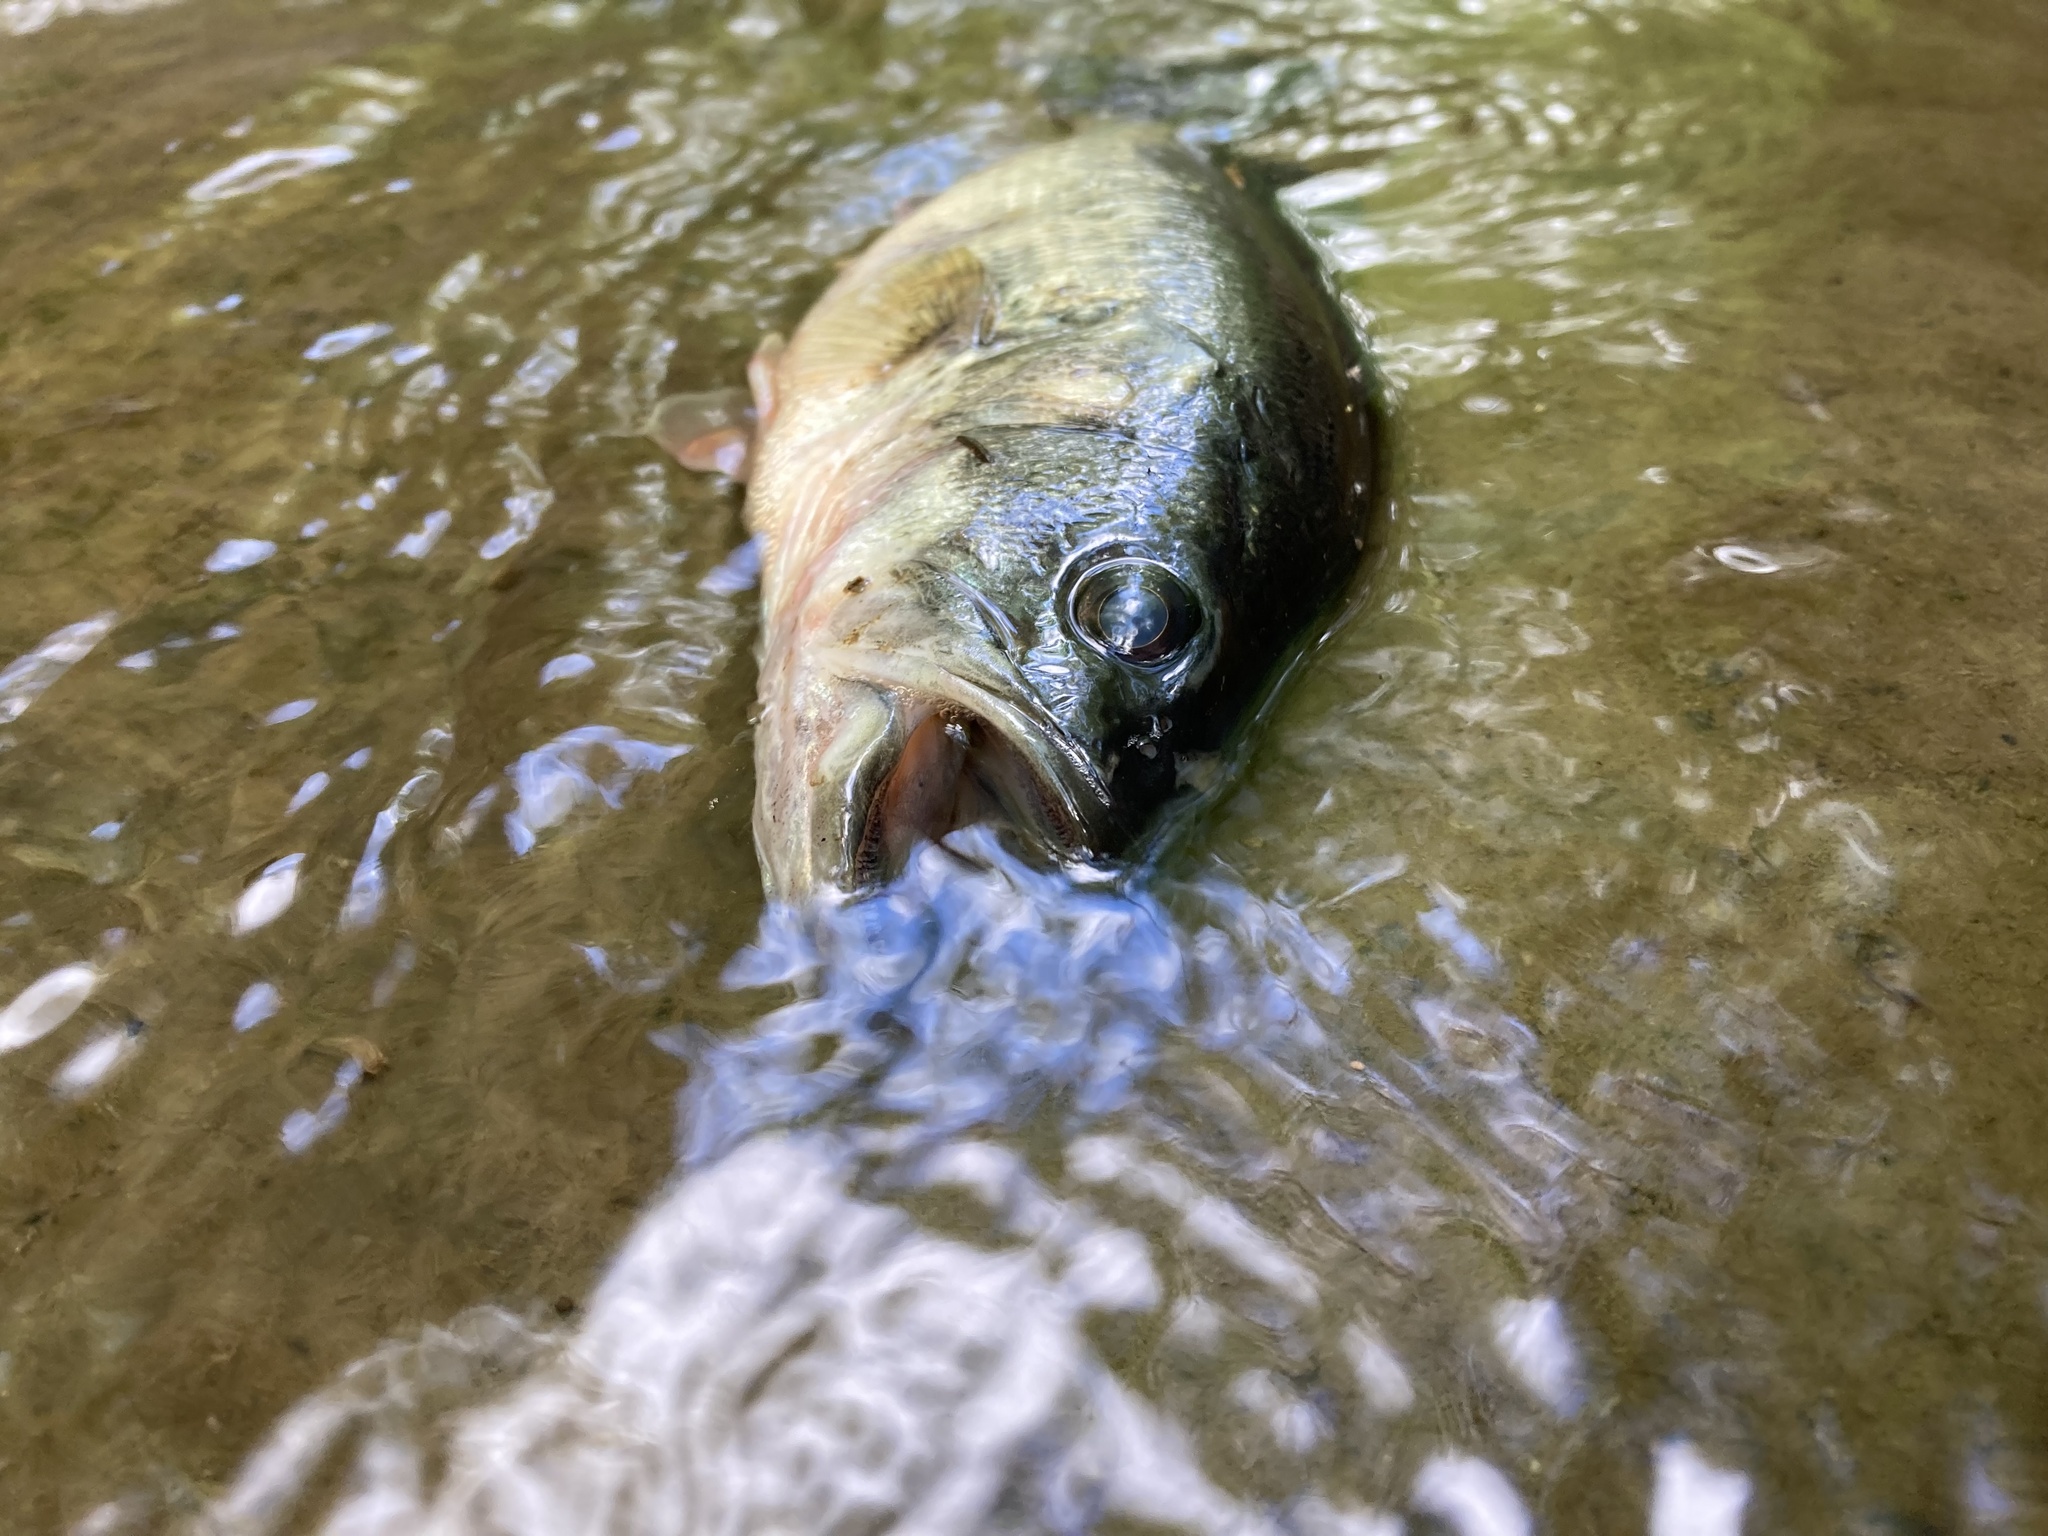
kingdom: Animalia
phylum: Chordata
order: Perciformes
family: Centrarchidae
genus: Micropterus
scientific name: Micropterus
